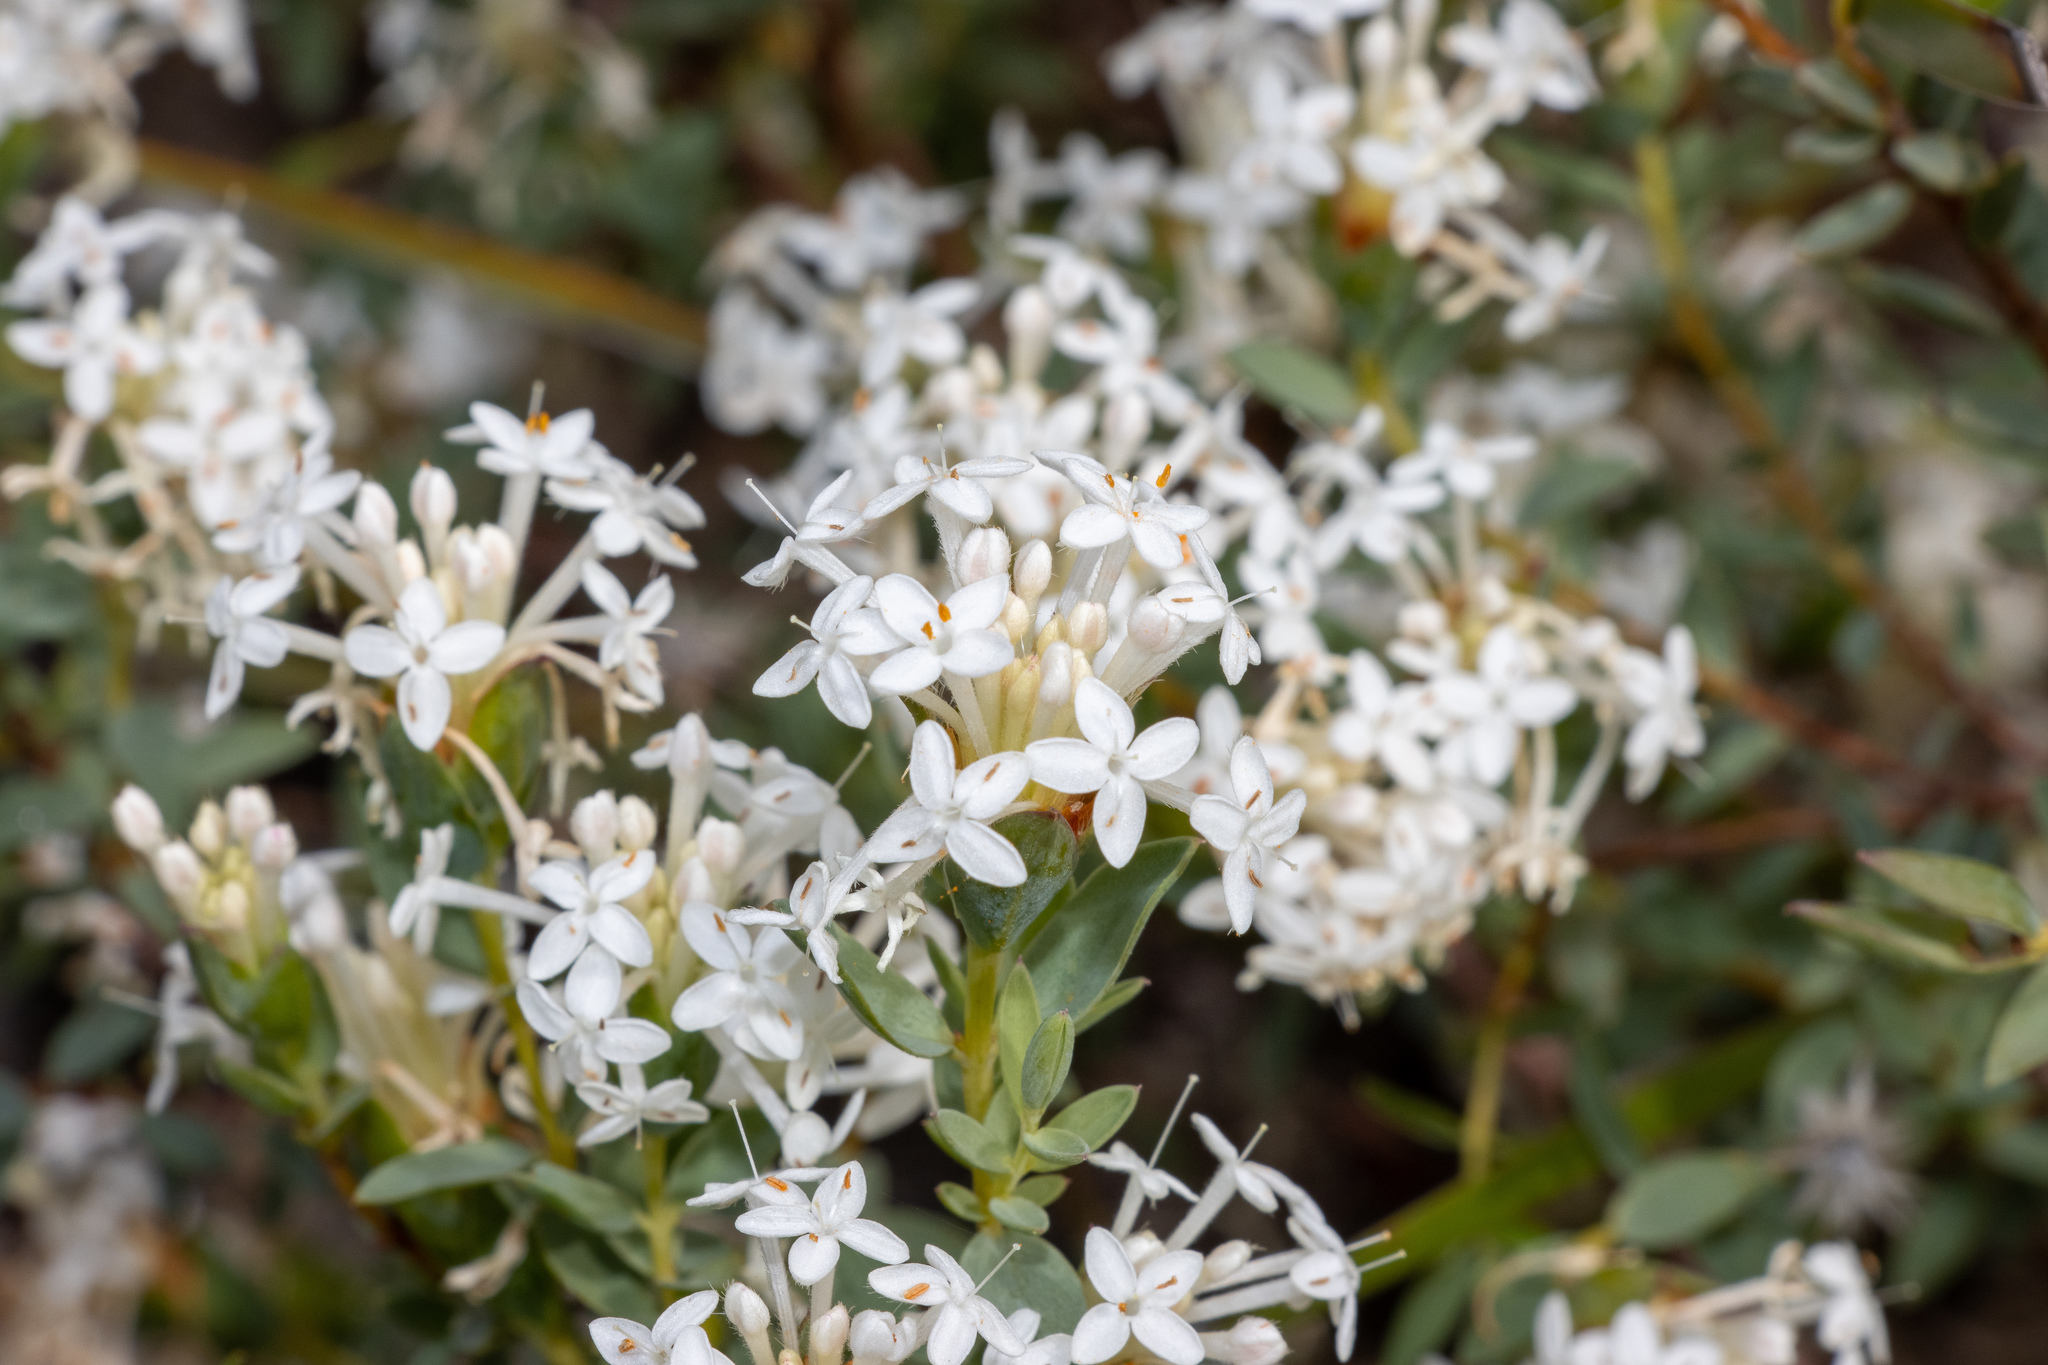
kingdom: Plantae
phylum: Tracheophyta
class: Magnoliopsida
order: Malvales
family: Thymelaeaceae
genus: Pimelea
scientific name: Pimelea glauca
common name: Smooth riceflower
